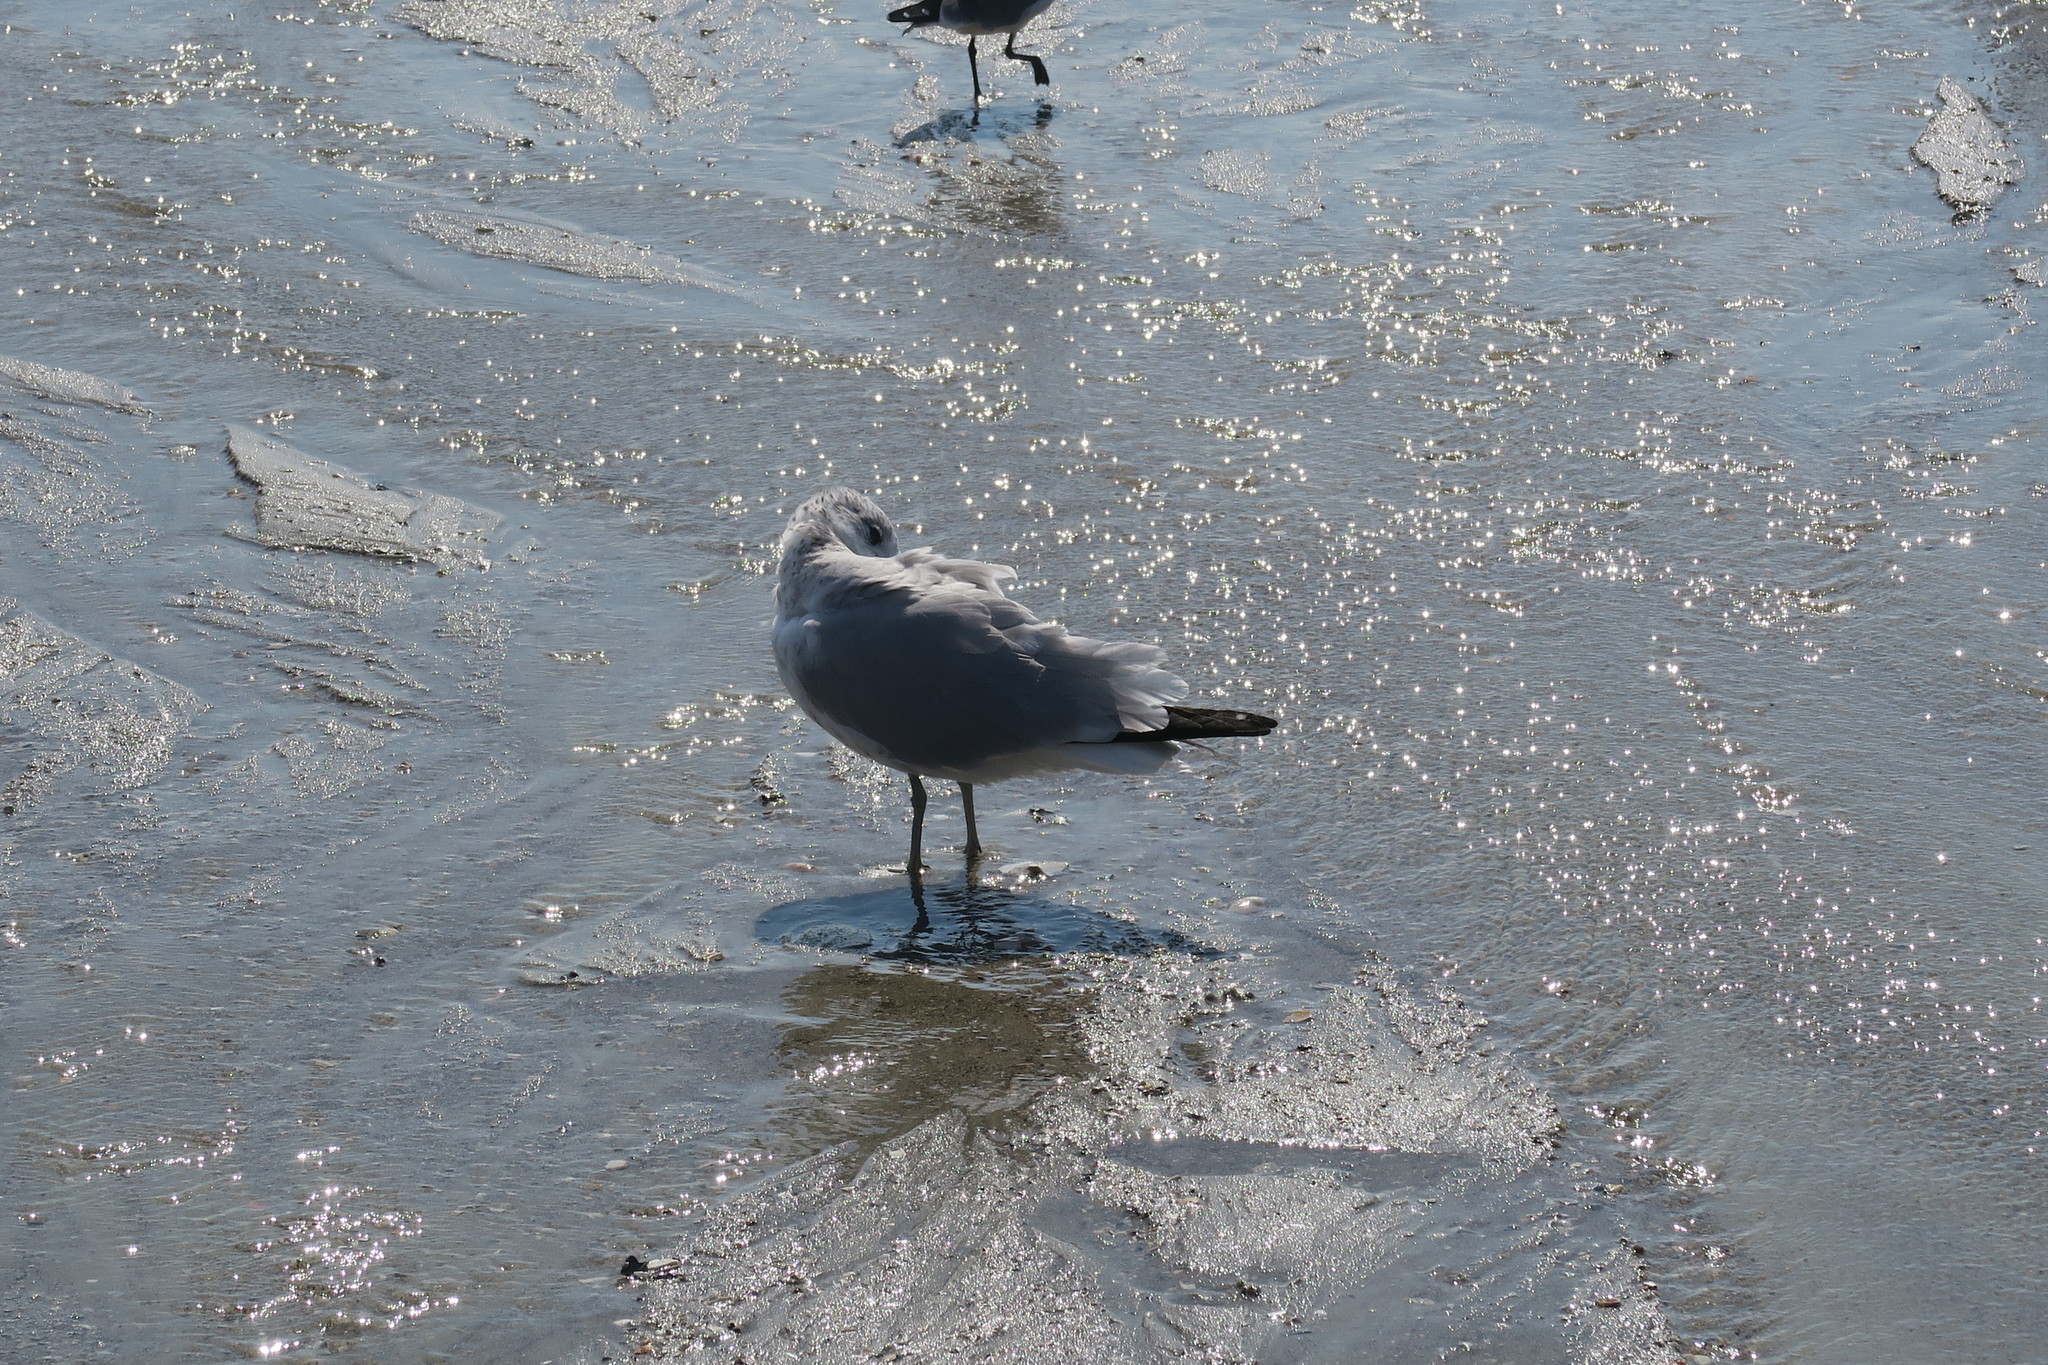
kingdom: Animalia
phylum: Chordata
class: Aves
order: Charadriiformes
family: Laridae
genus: Larus
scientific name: Larus delawarensis
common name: Ring-billed gull
